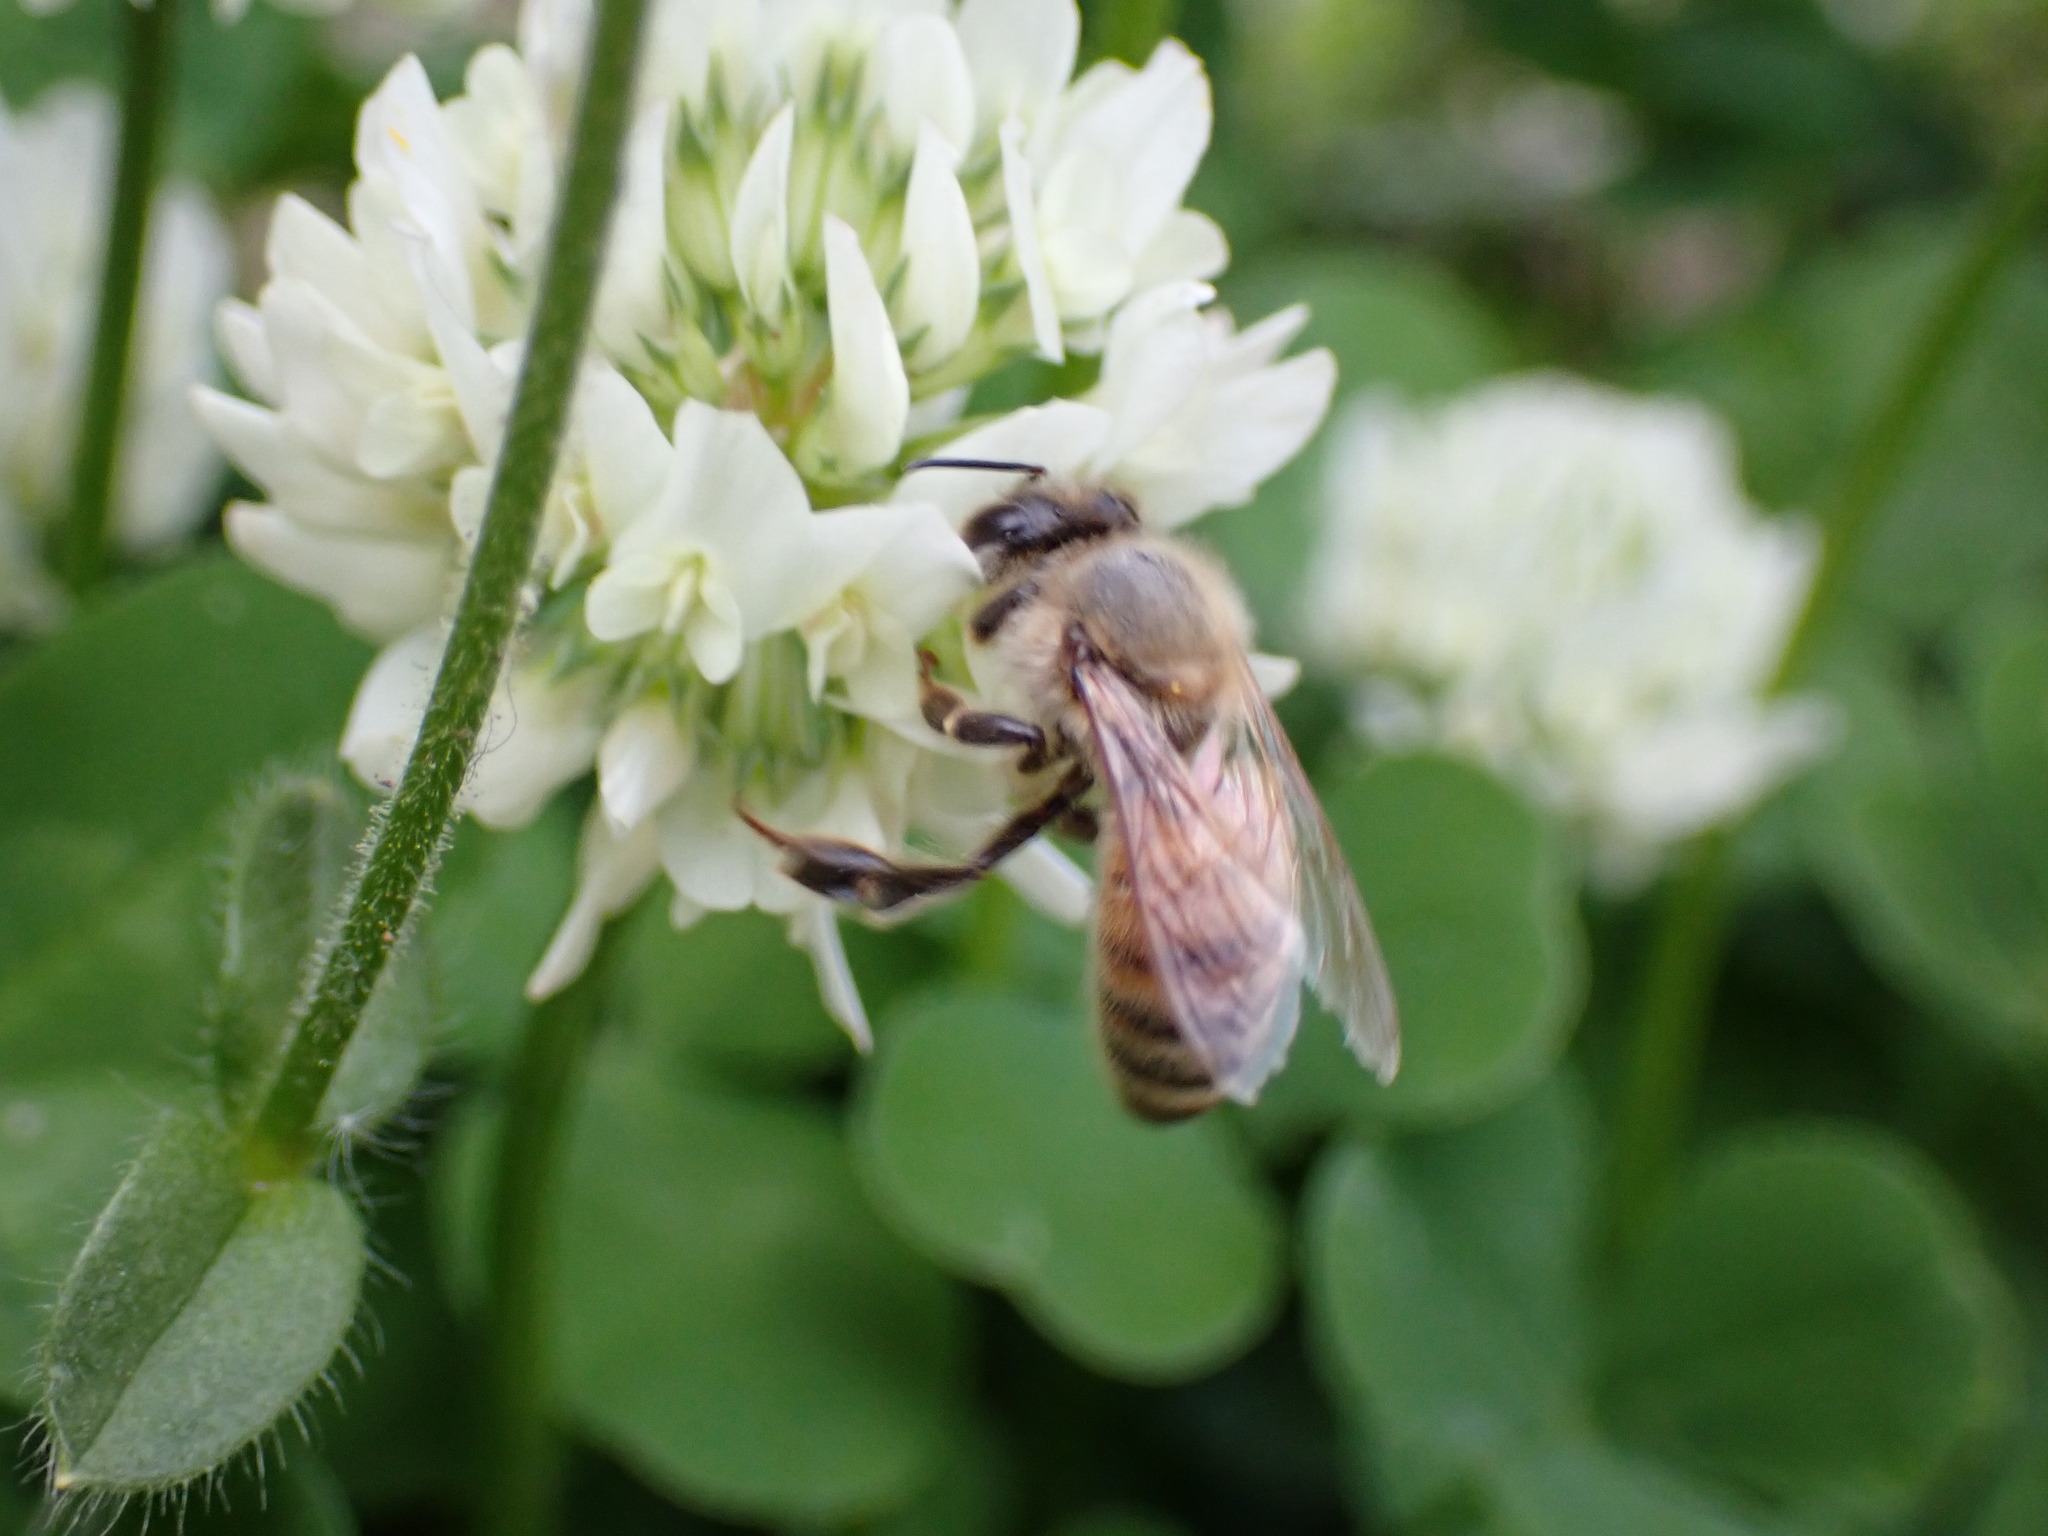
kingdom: Animalia
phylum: Arthropoda
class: Insecta
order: Hymenoptera
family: Apidae
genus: Apis
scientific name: Apis mellifera
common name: Honey bee
